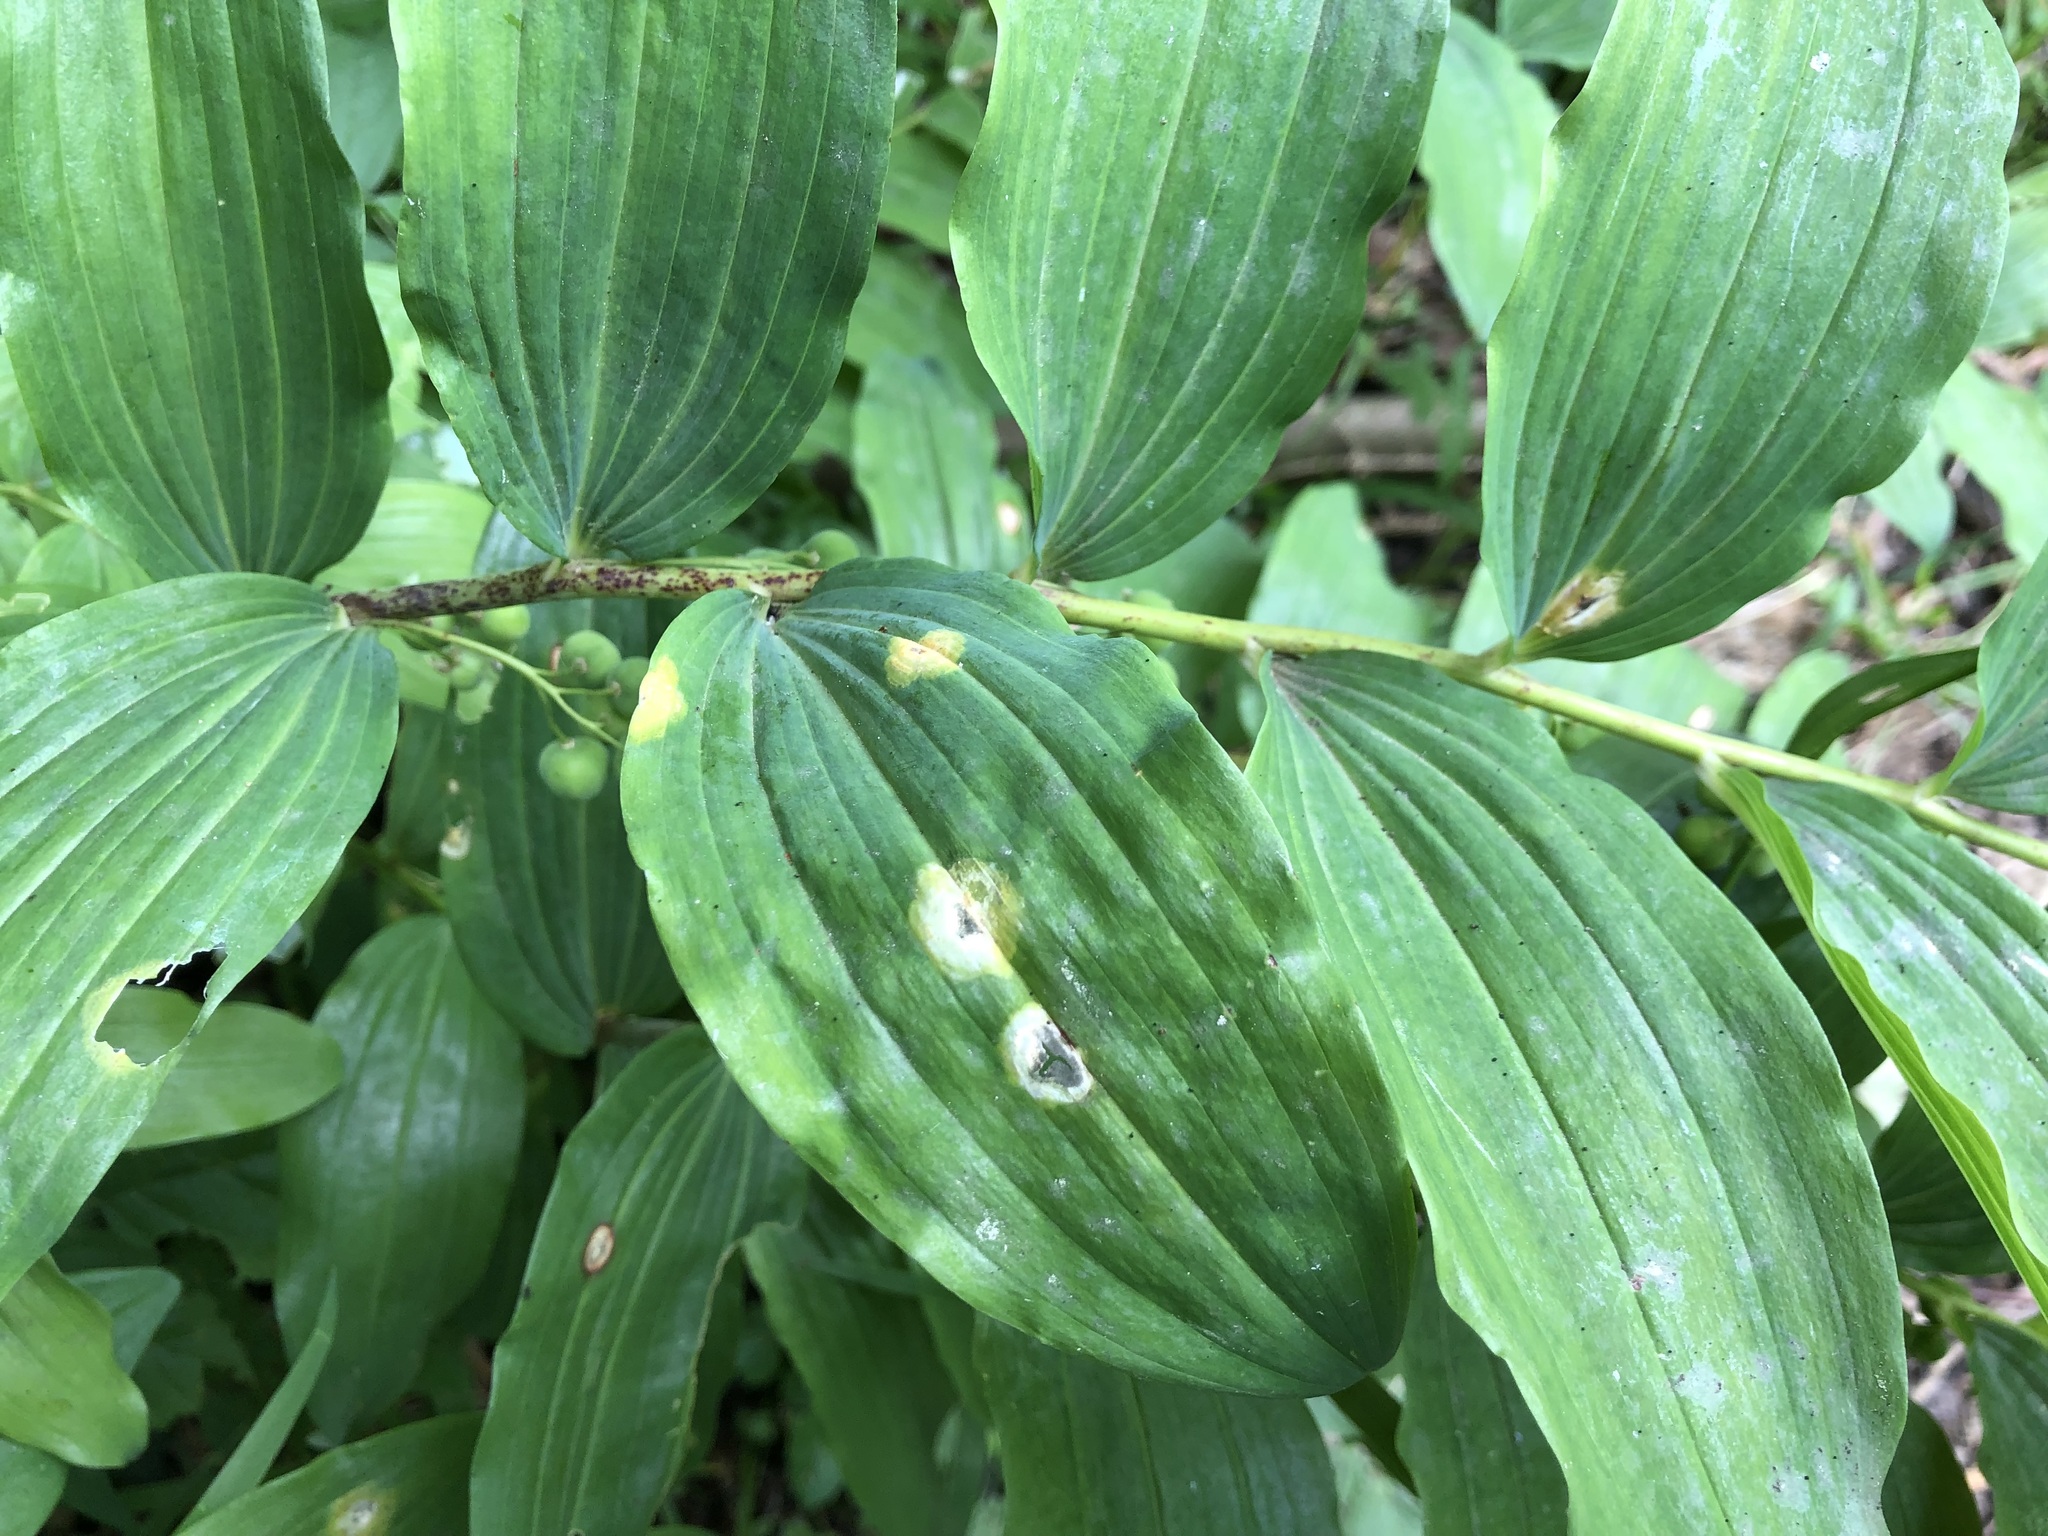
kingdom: Fungi
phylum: Basidiomycota
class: Pucciniomycetes
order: Pucciniales
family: Pucciniaceae
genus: Puccinia
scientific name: Puccinia sessilis
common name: Arum rust
